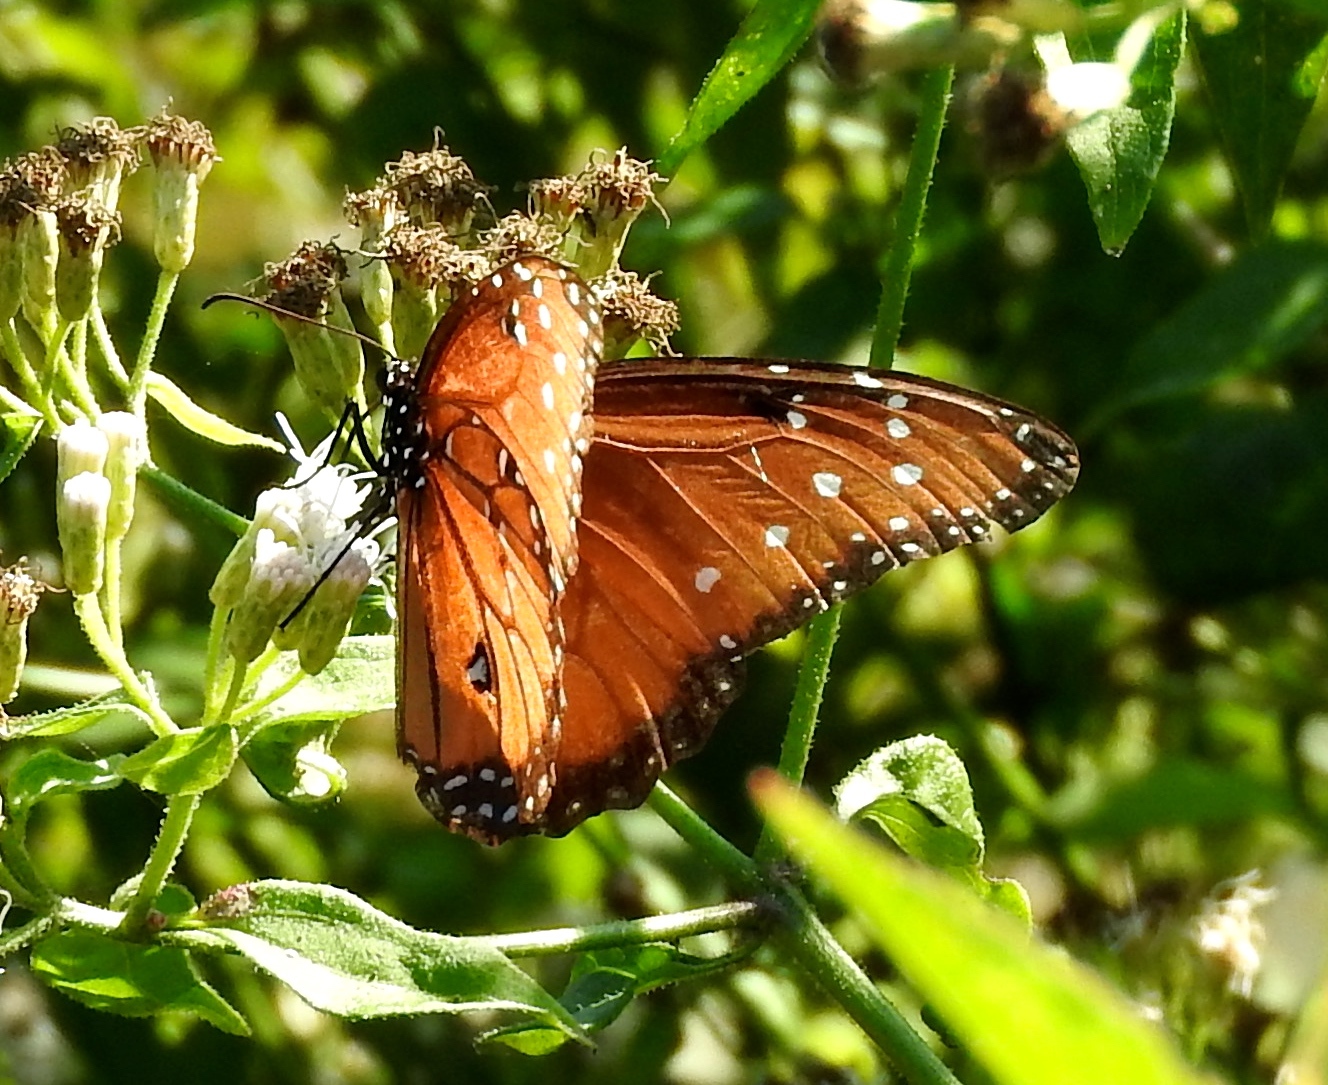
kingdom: Animalia
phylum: Arthropoda
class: Insecta
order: Lepidoptera
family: Nymphalidae
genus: Danaus
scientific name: Danaus gilippus
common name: Queen
